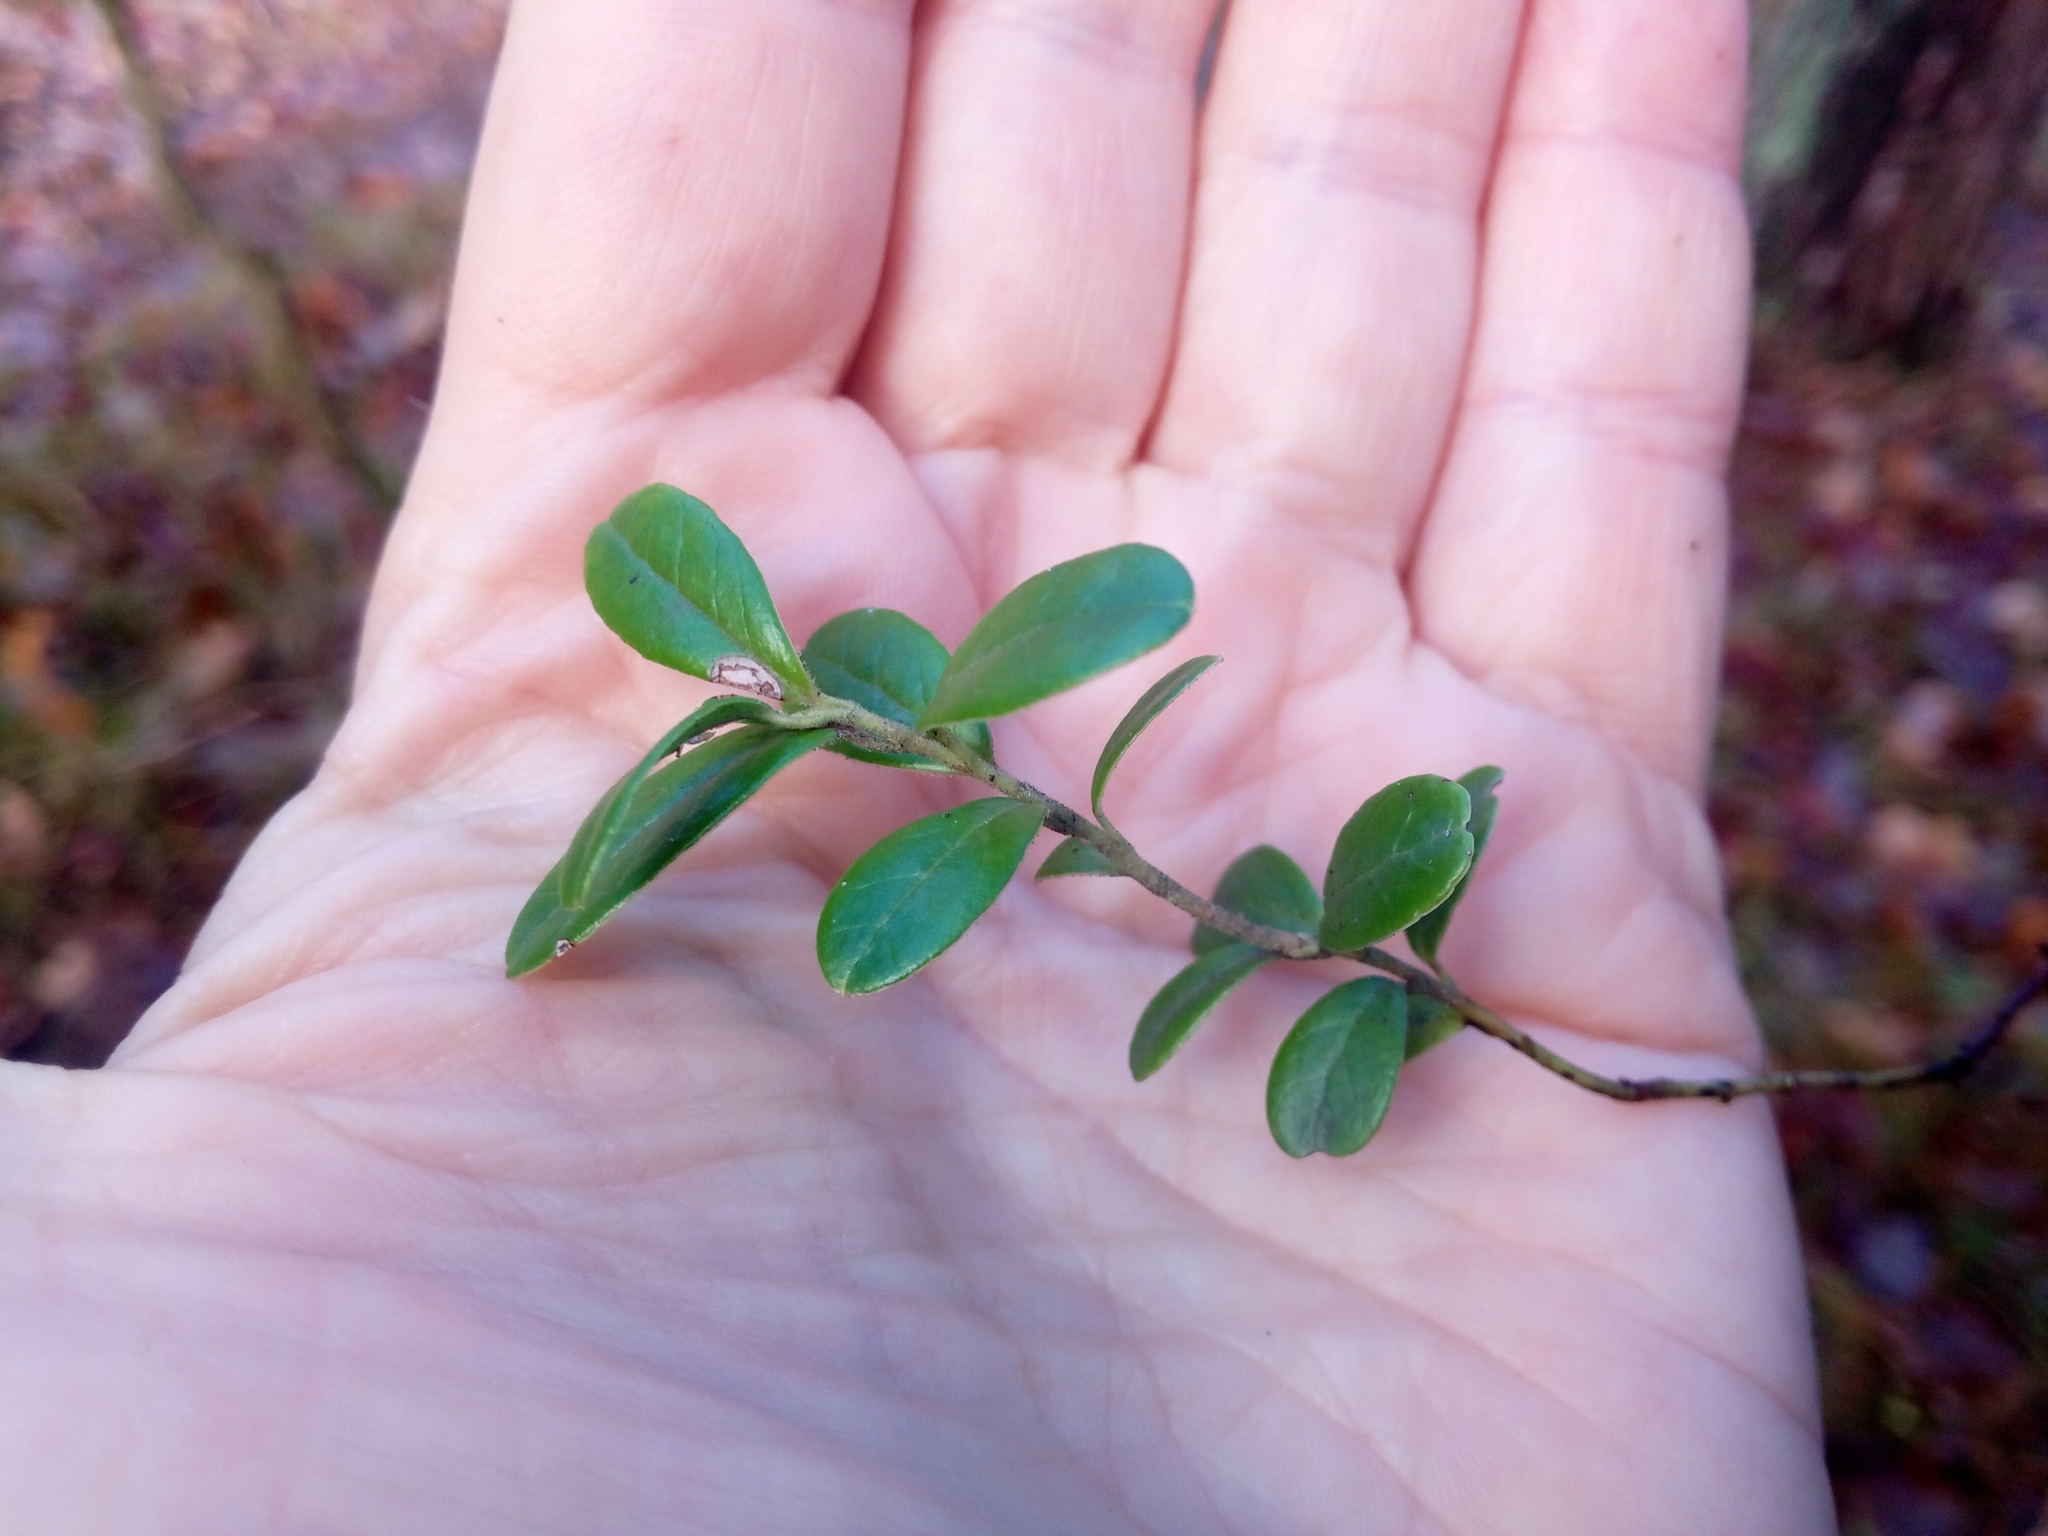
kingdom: Plantae
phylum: Tracheophyta
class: Magnoliopsida
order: Ericales
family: Ericaceae
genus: Vaccinium
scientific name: Vaccinium vitis-idaea
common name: Cowberry
